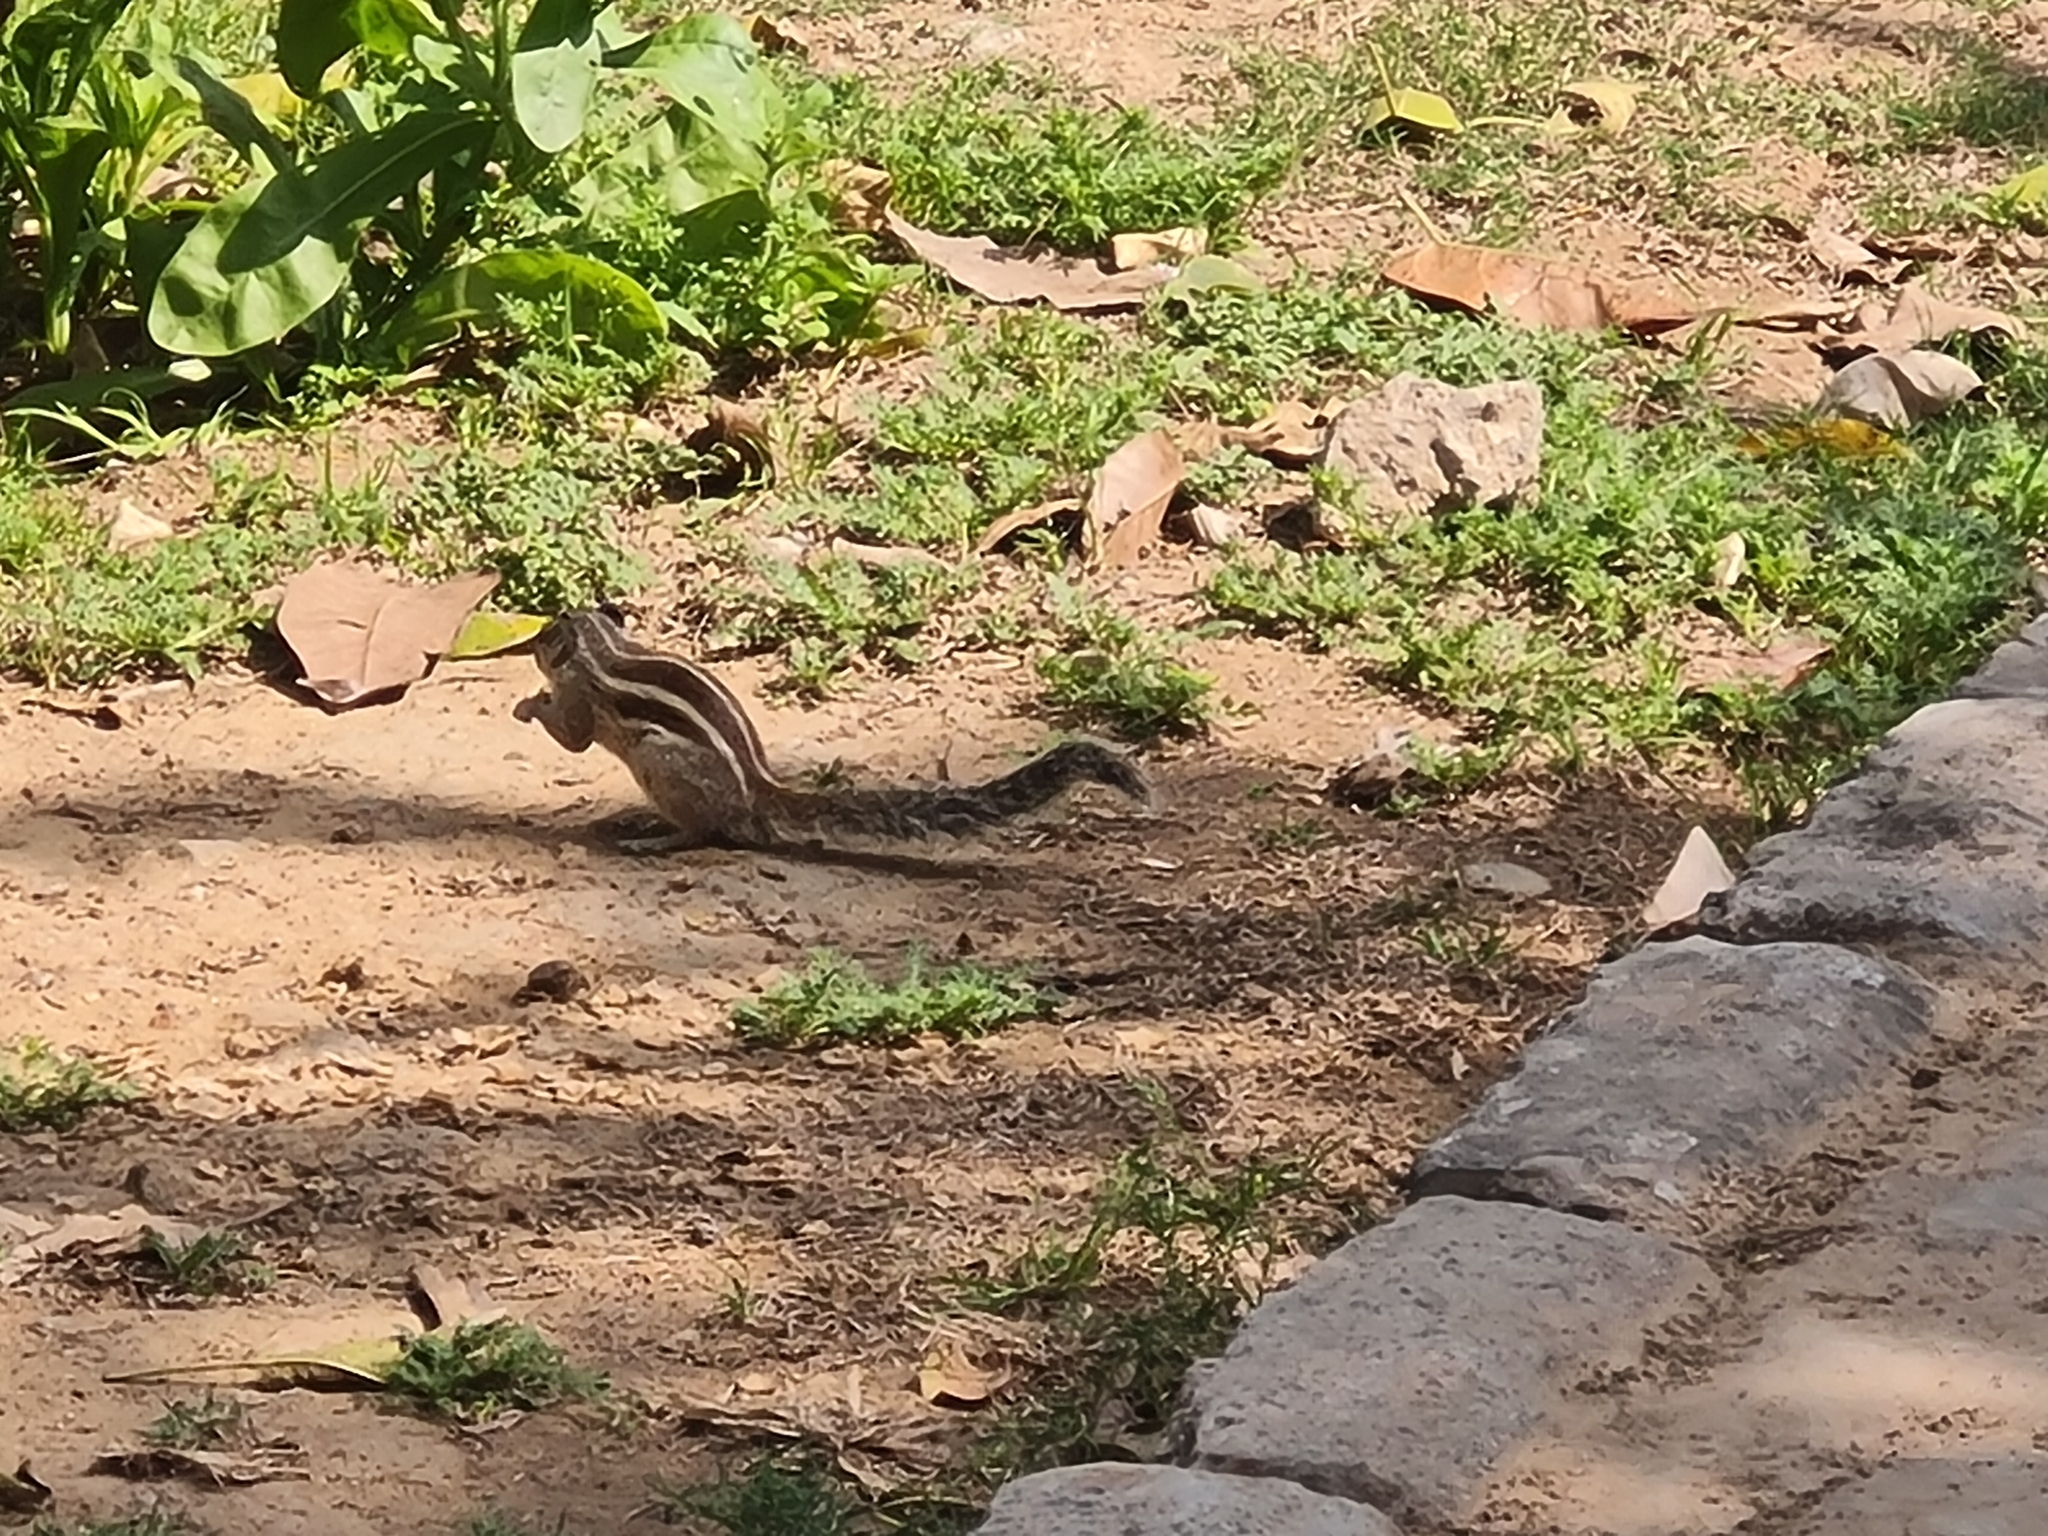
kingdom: Animalia
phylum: Chordata
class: Mammalia
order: Rodentia
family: Sciuridae
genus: Funambulus
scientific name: Funambulus pennantii
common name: Northern palm squirrel
